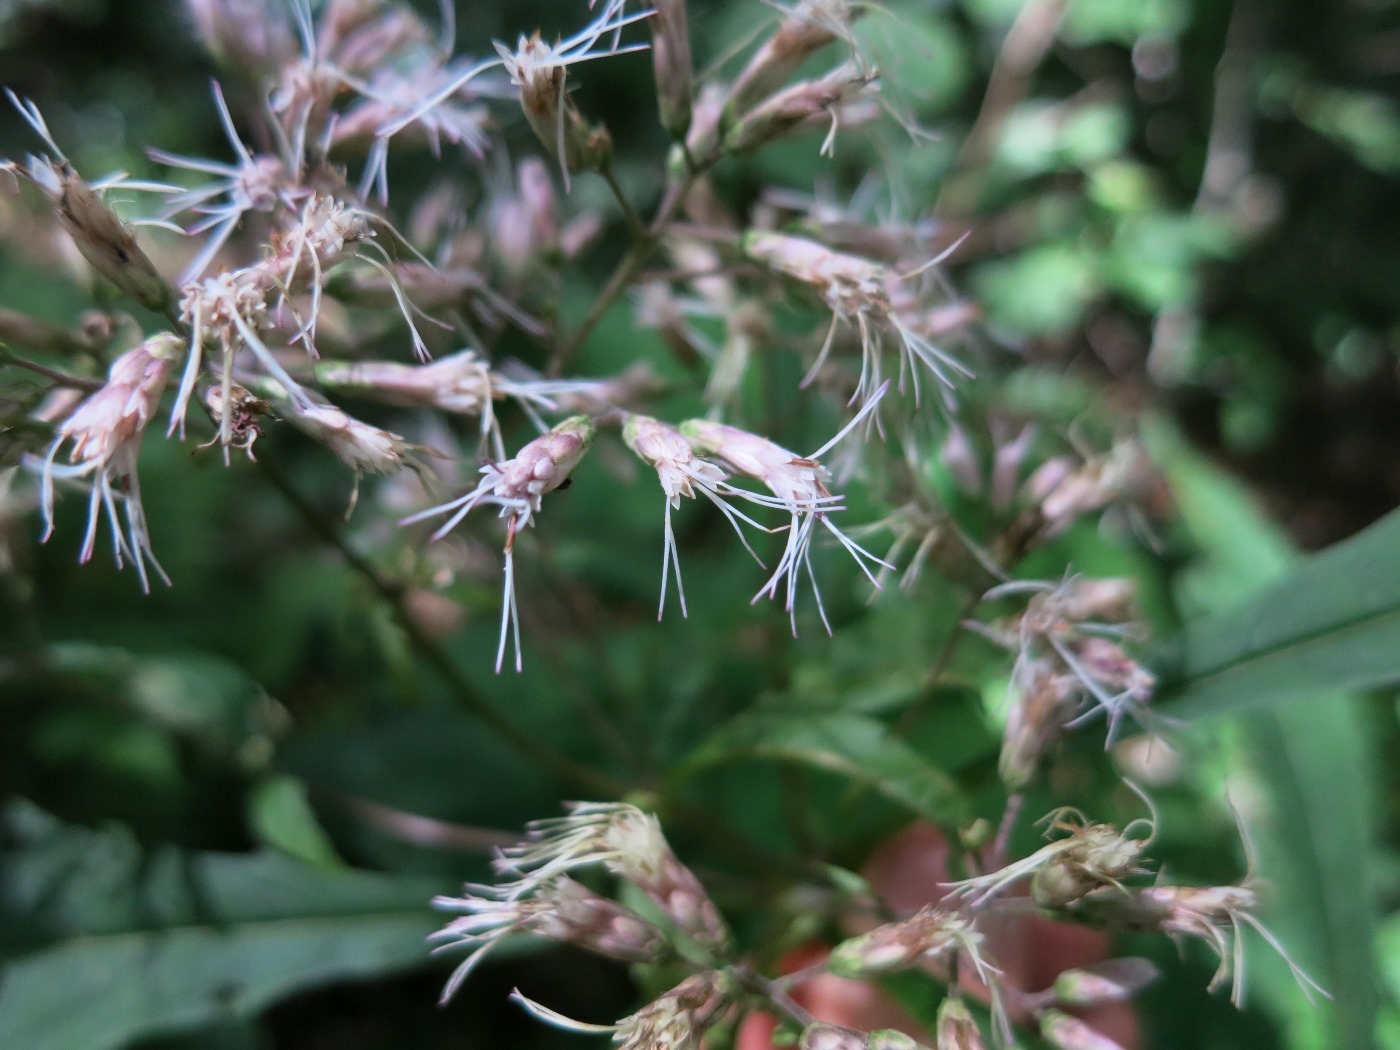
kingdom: Plantae
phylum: Tracheophyta
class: Magnoliopsida
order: Asterales
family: Asteraceae
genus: Eutrochium
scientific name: Eutrochium fistulosum
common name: Trumpetweed
